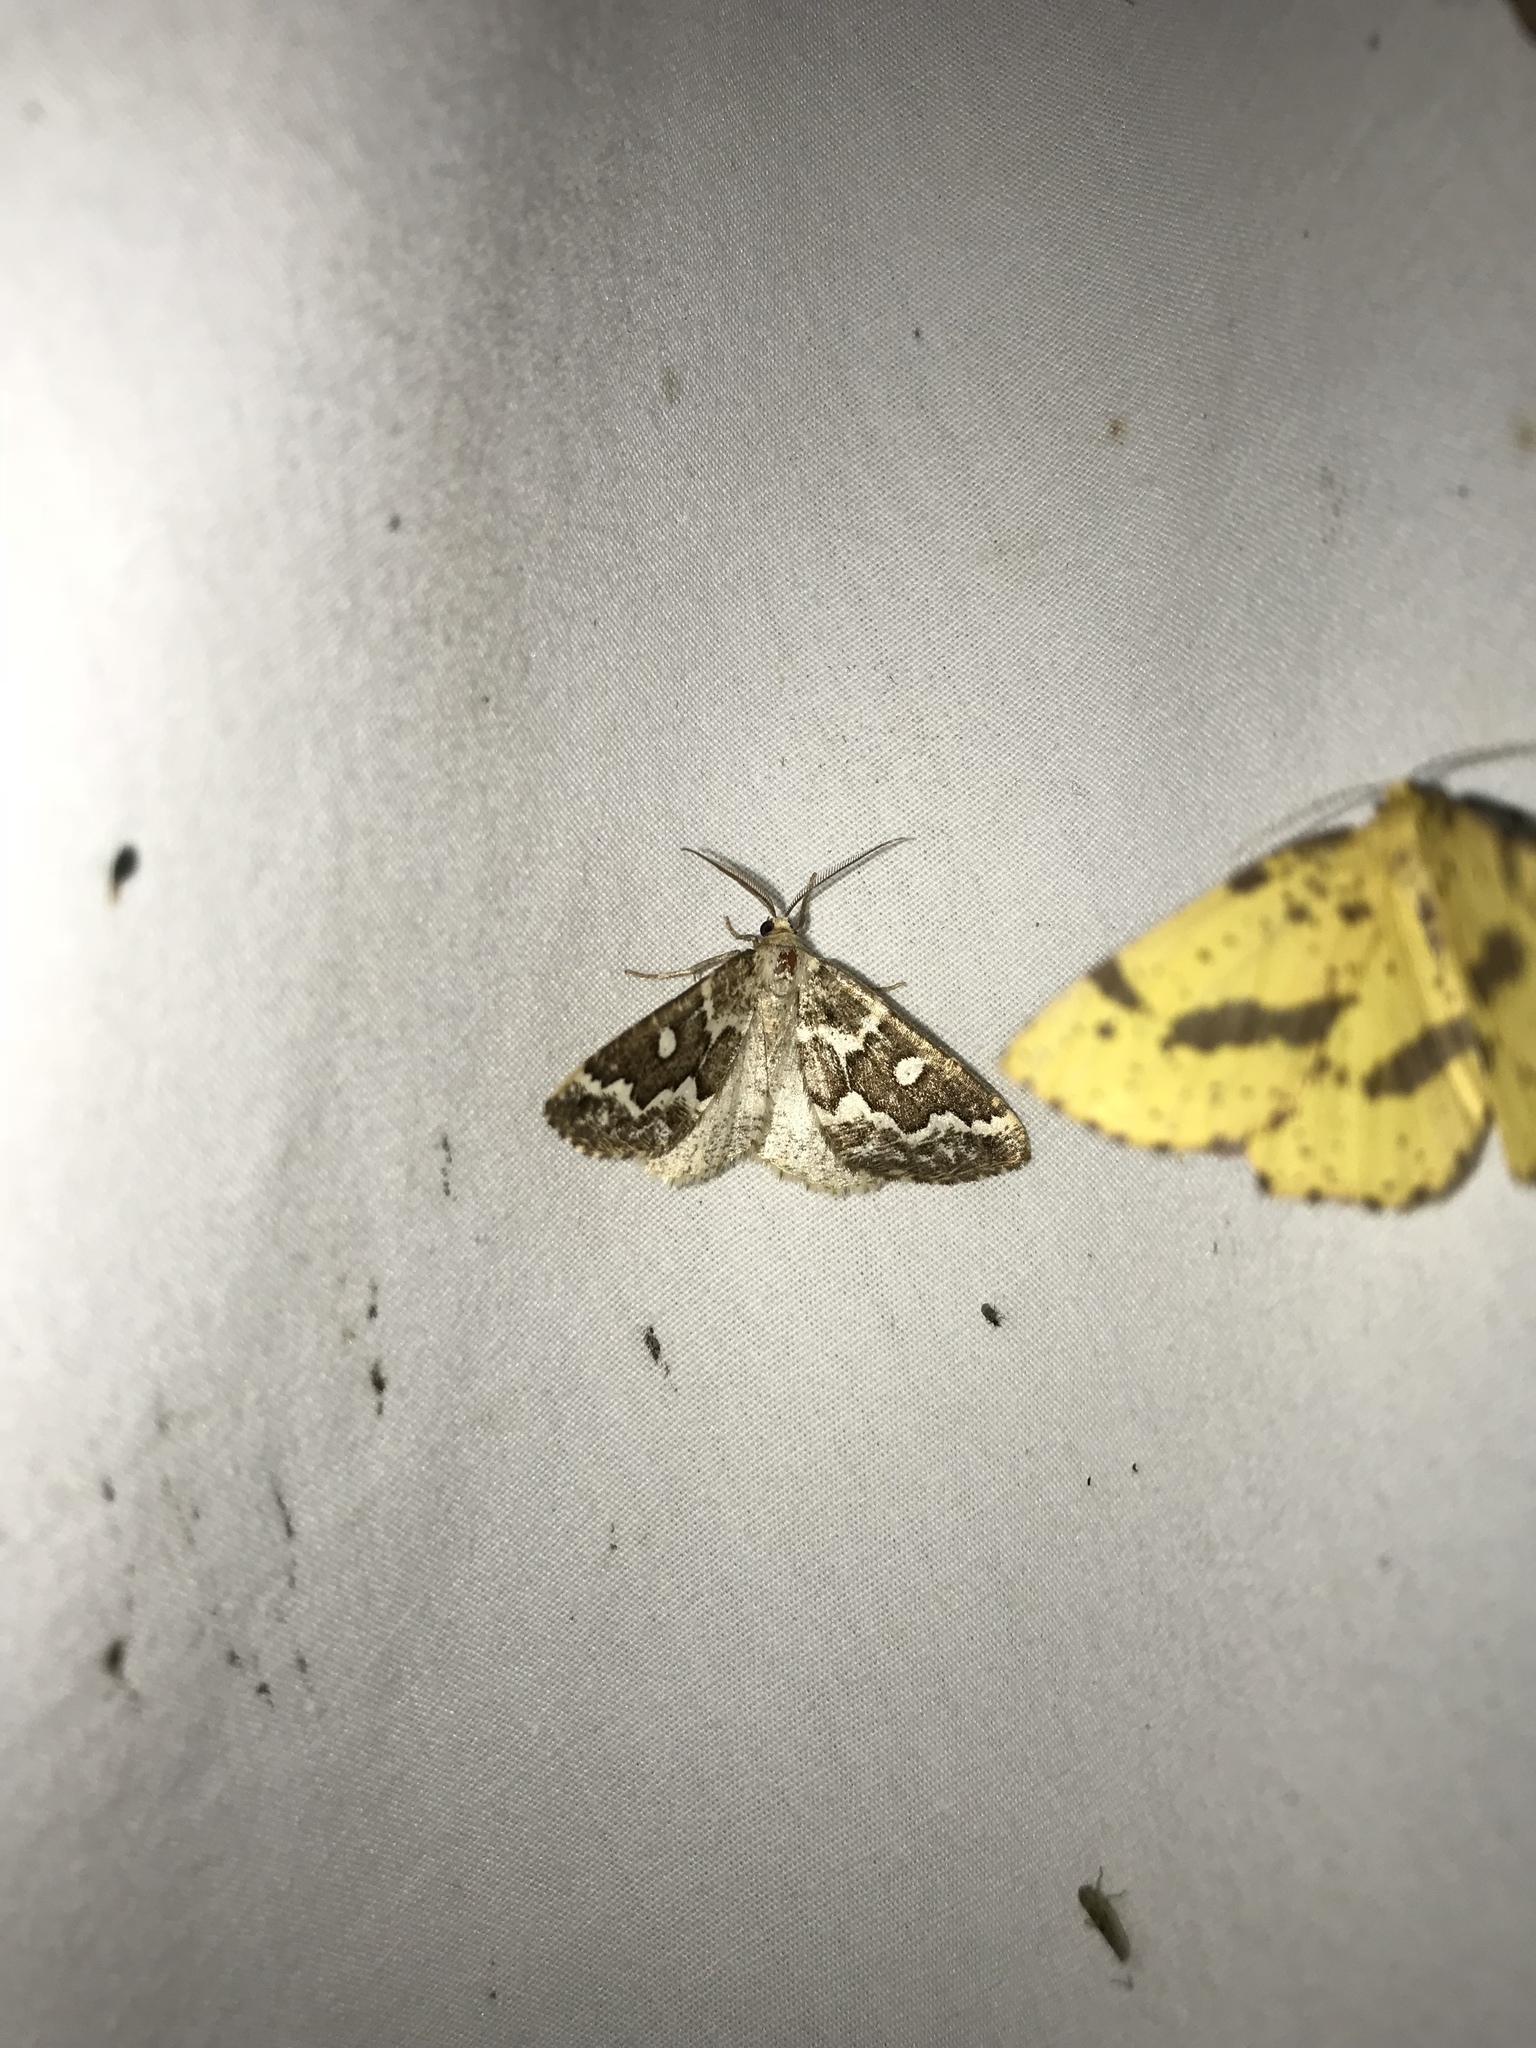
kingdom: Animalia
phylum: Arthropoda
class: Insecta
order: Lepidoptera
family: Geometridae
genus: Caripeta
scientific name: Caripeta divisata
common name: Gray spruce looper
